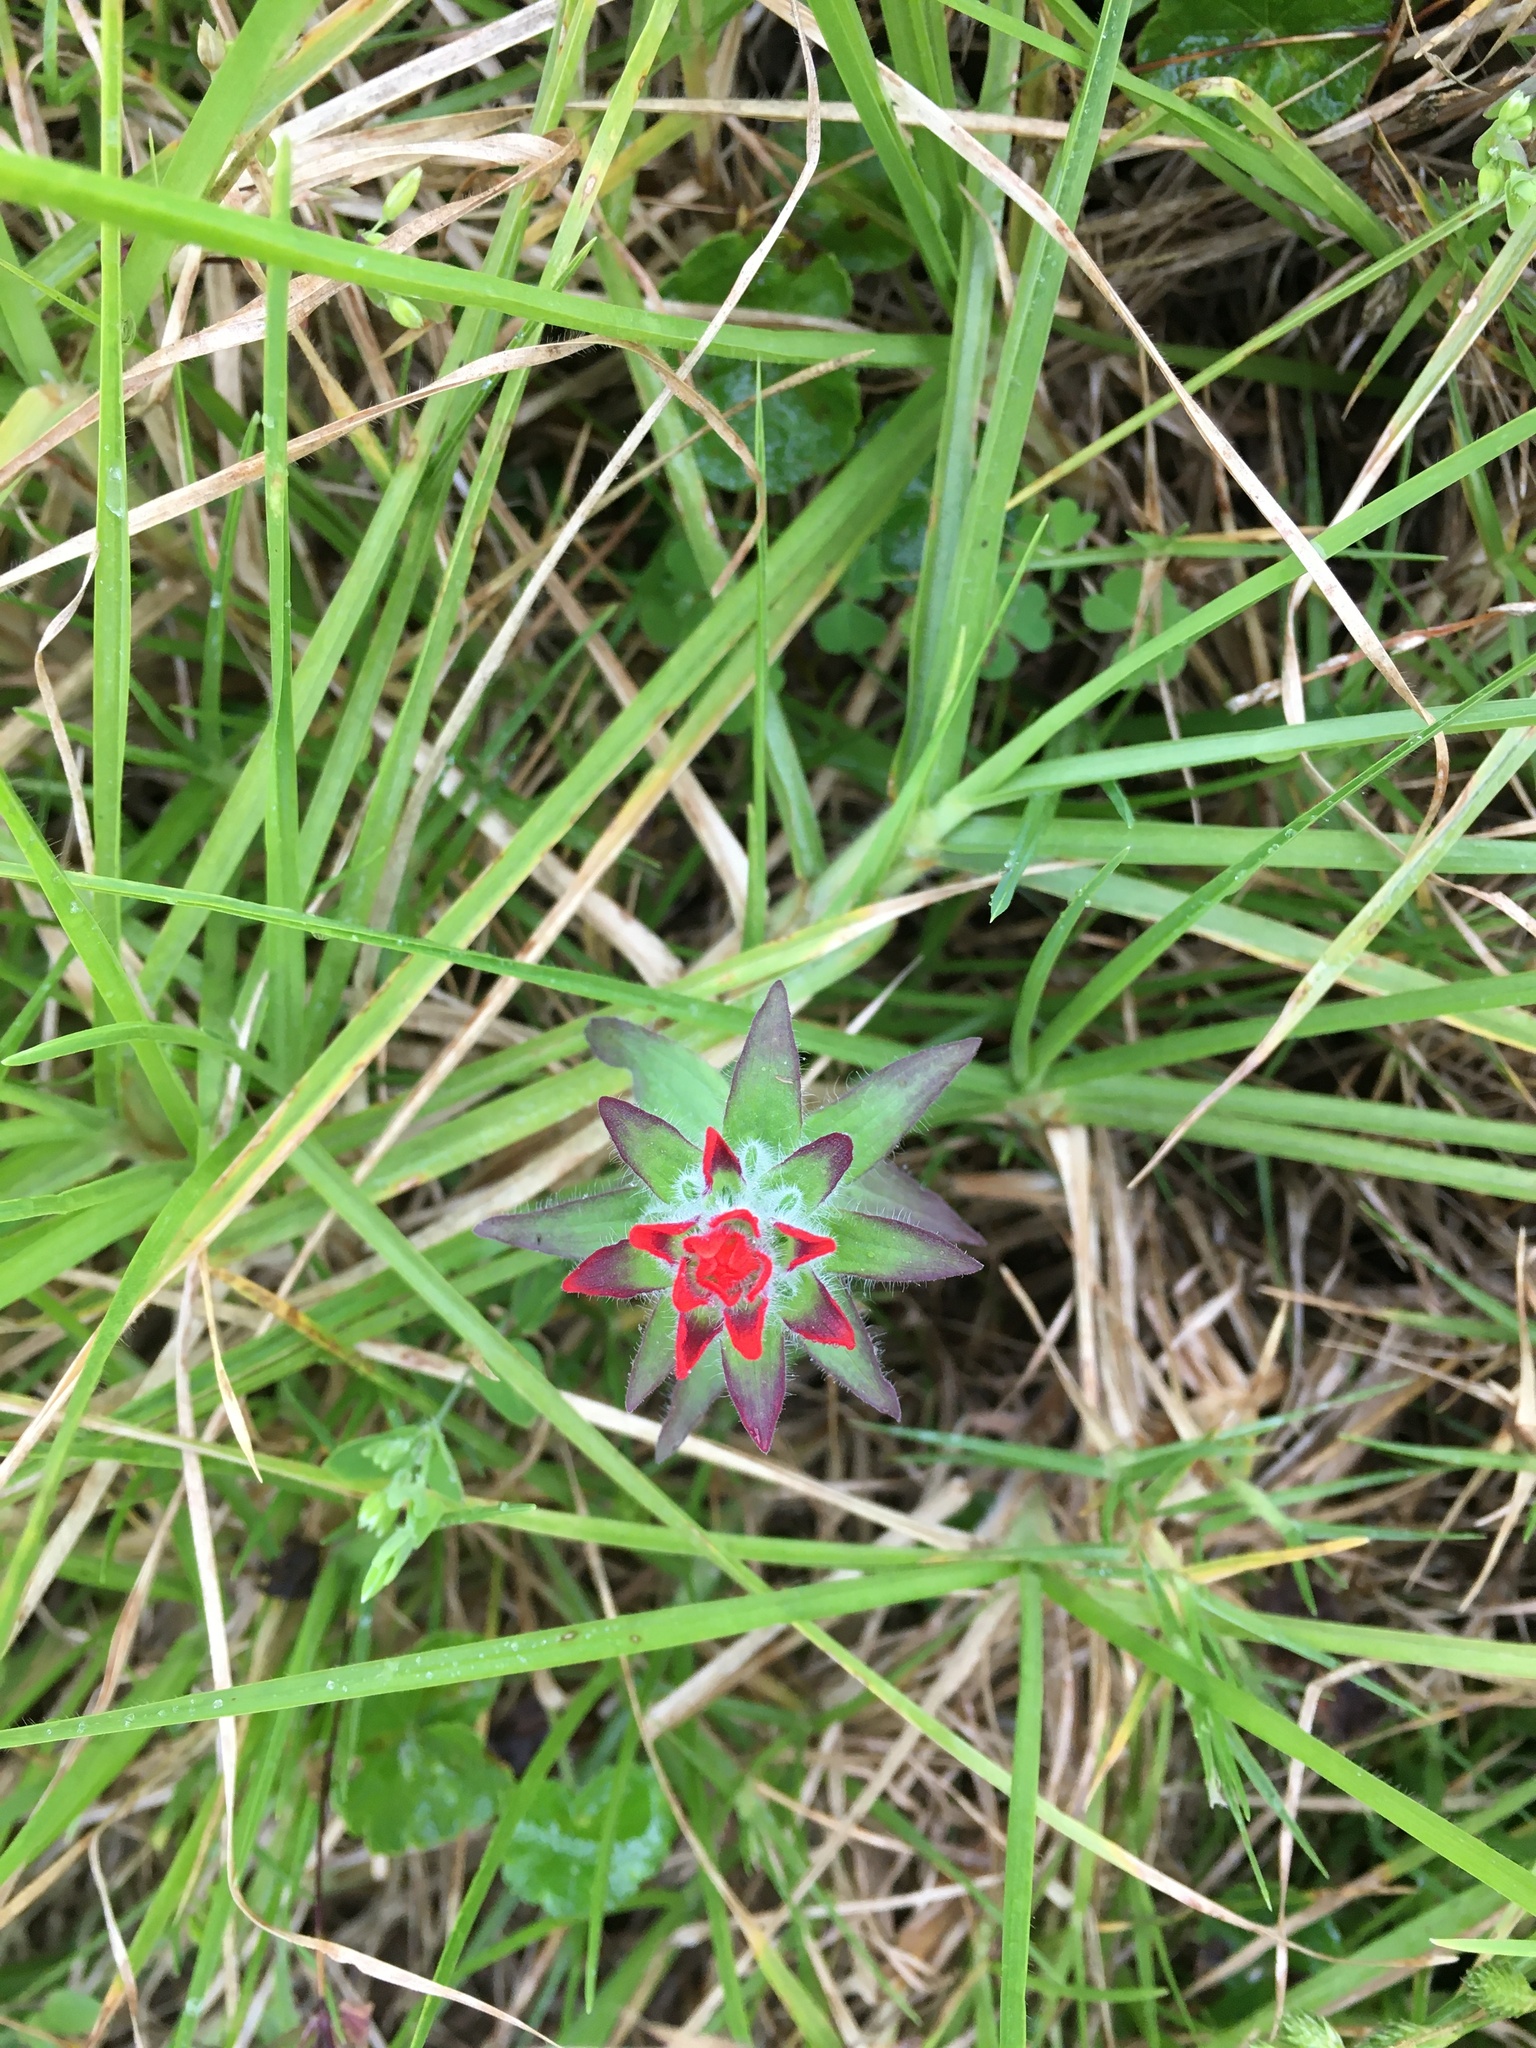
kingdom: Plantae
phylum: Tracheophyta
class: Magnoliopsida
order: Lamiales
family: Orobanchaceae
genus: Castilleja
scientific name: Castilleja arvensis
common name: Indian paintbrush
